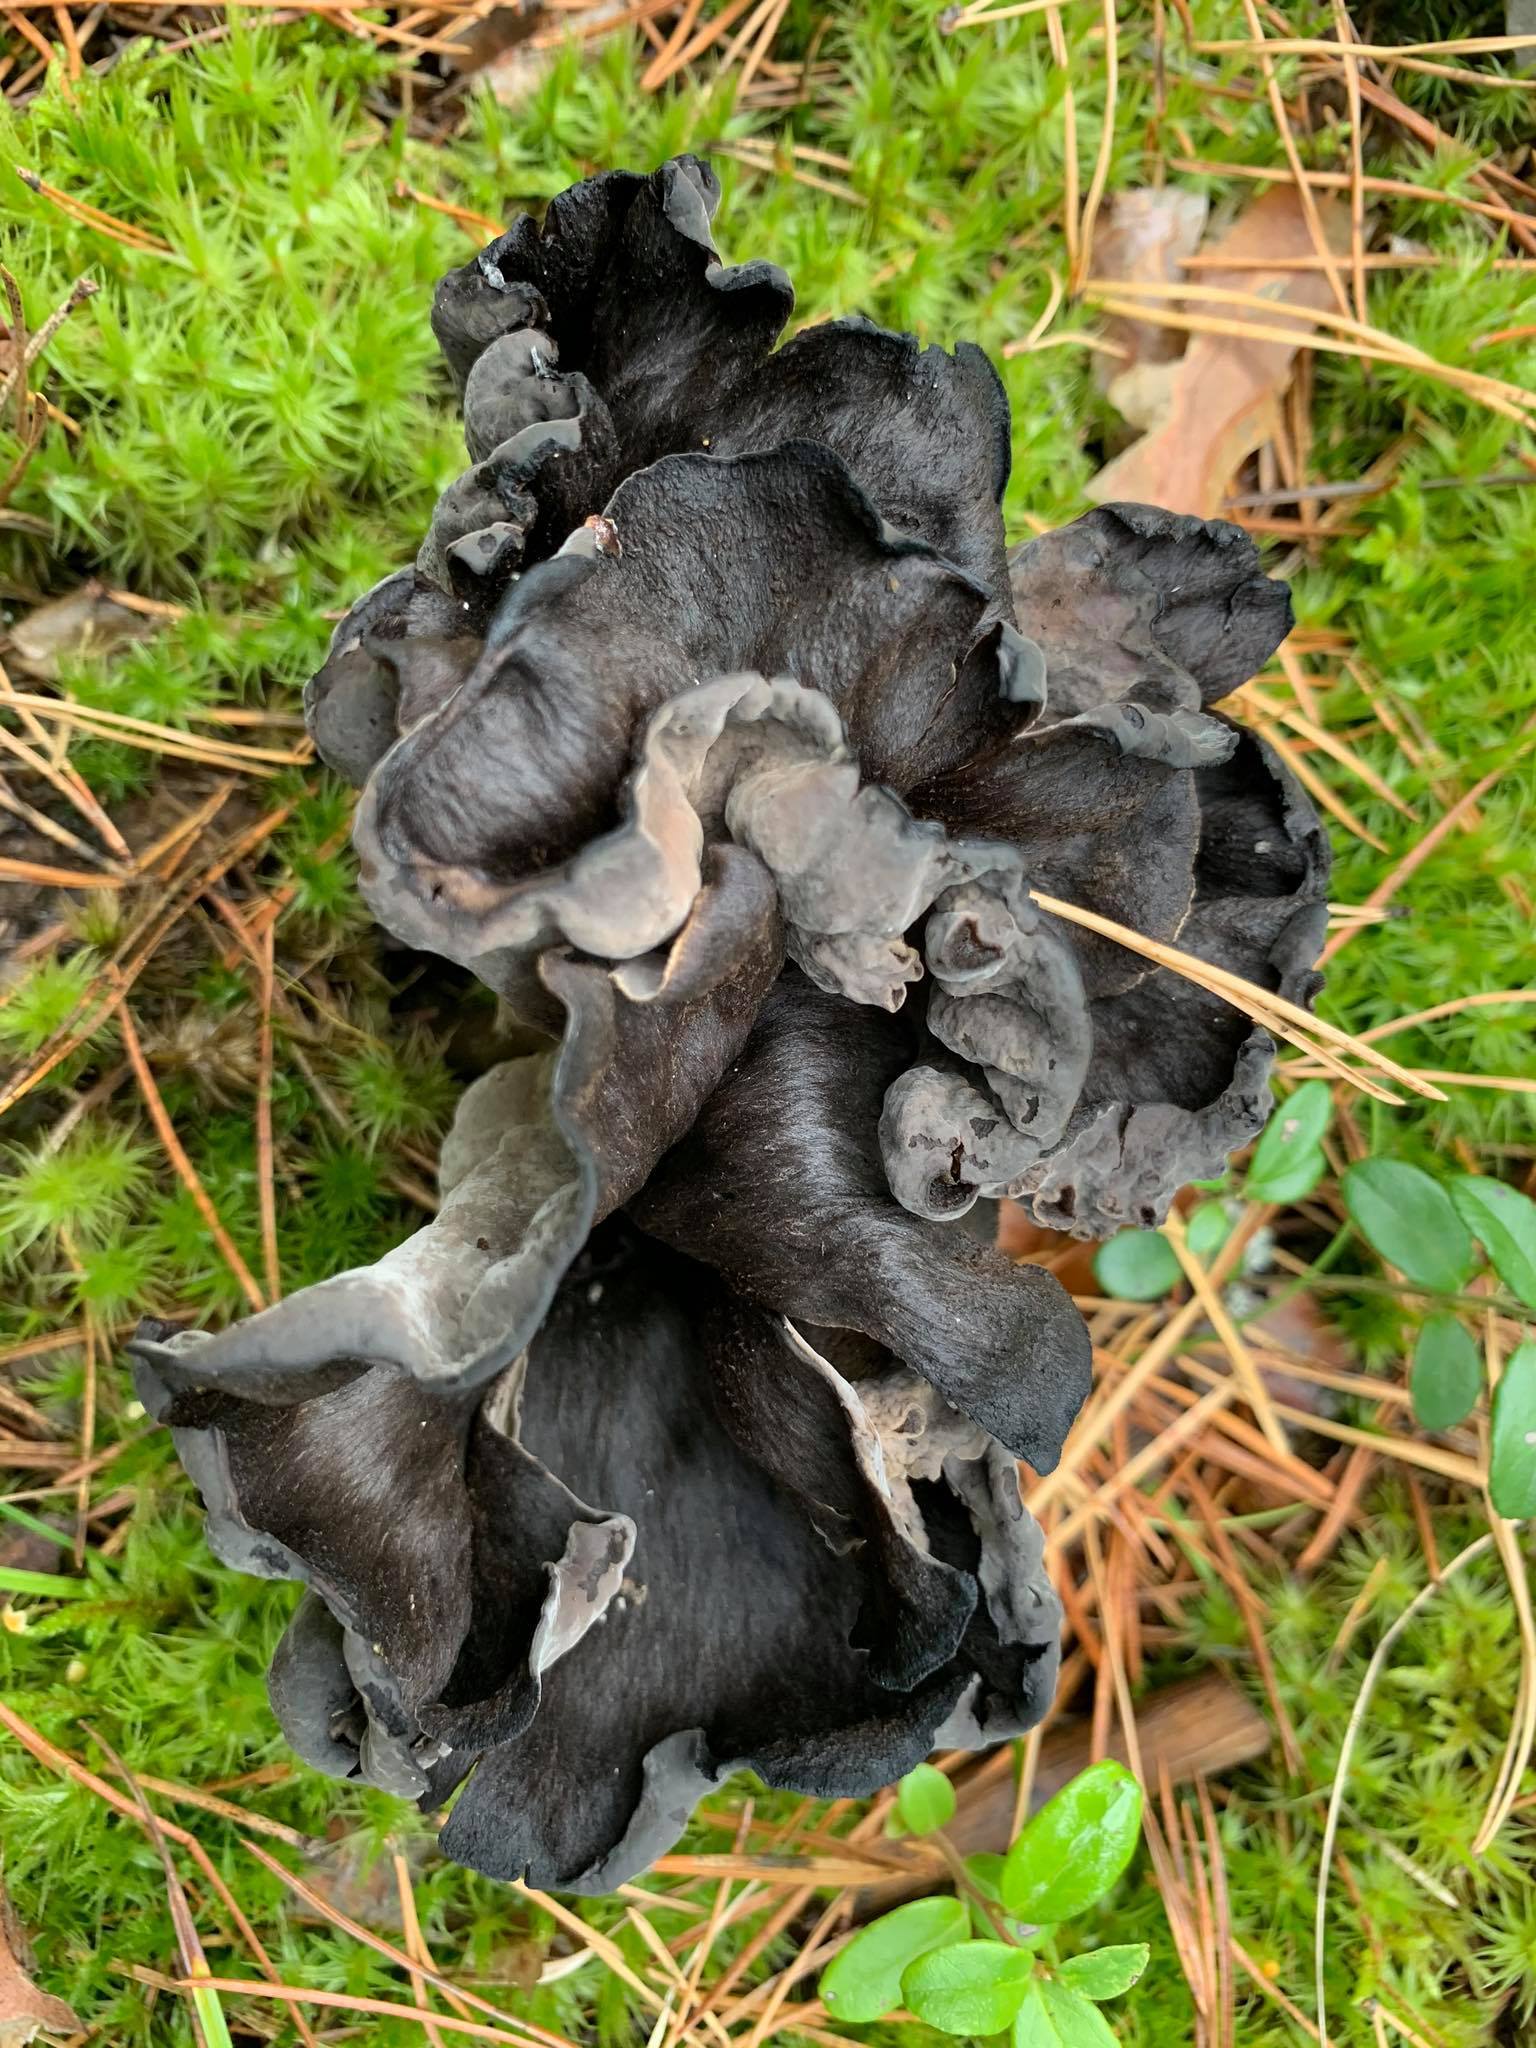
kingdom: Fungi
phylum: Basidiomycota
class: Agaricomycetes
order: Cantharellales
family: Hydnaceae
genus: Craterellus
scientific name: Craterellus cornucopioides
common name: Horn of plenty
